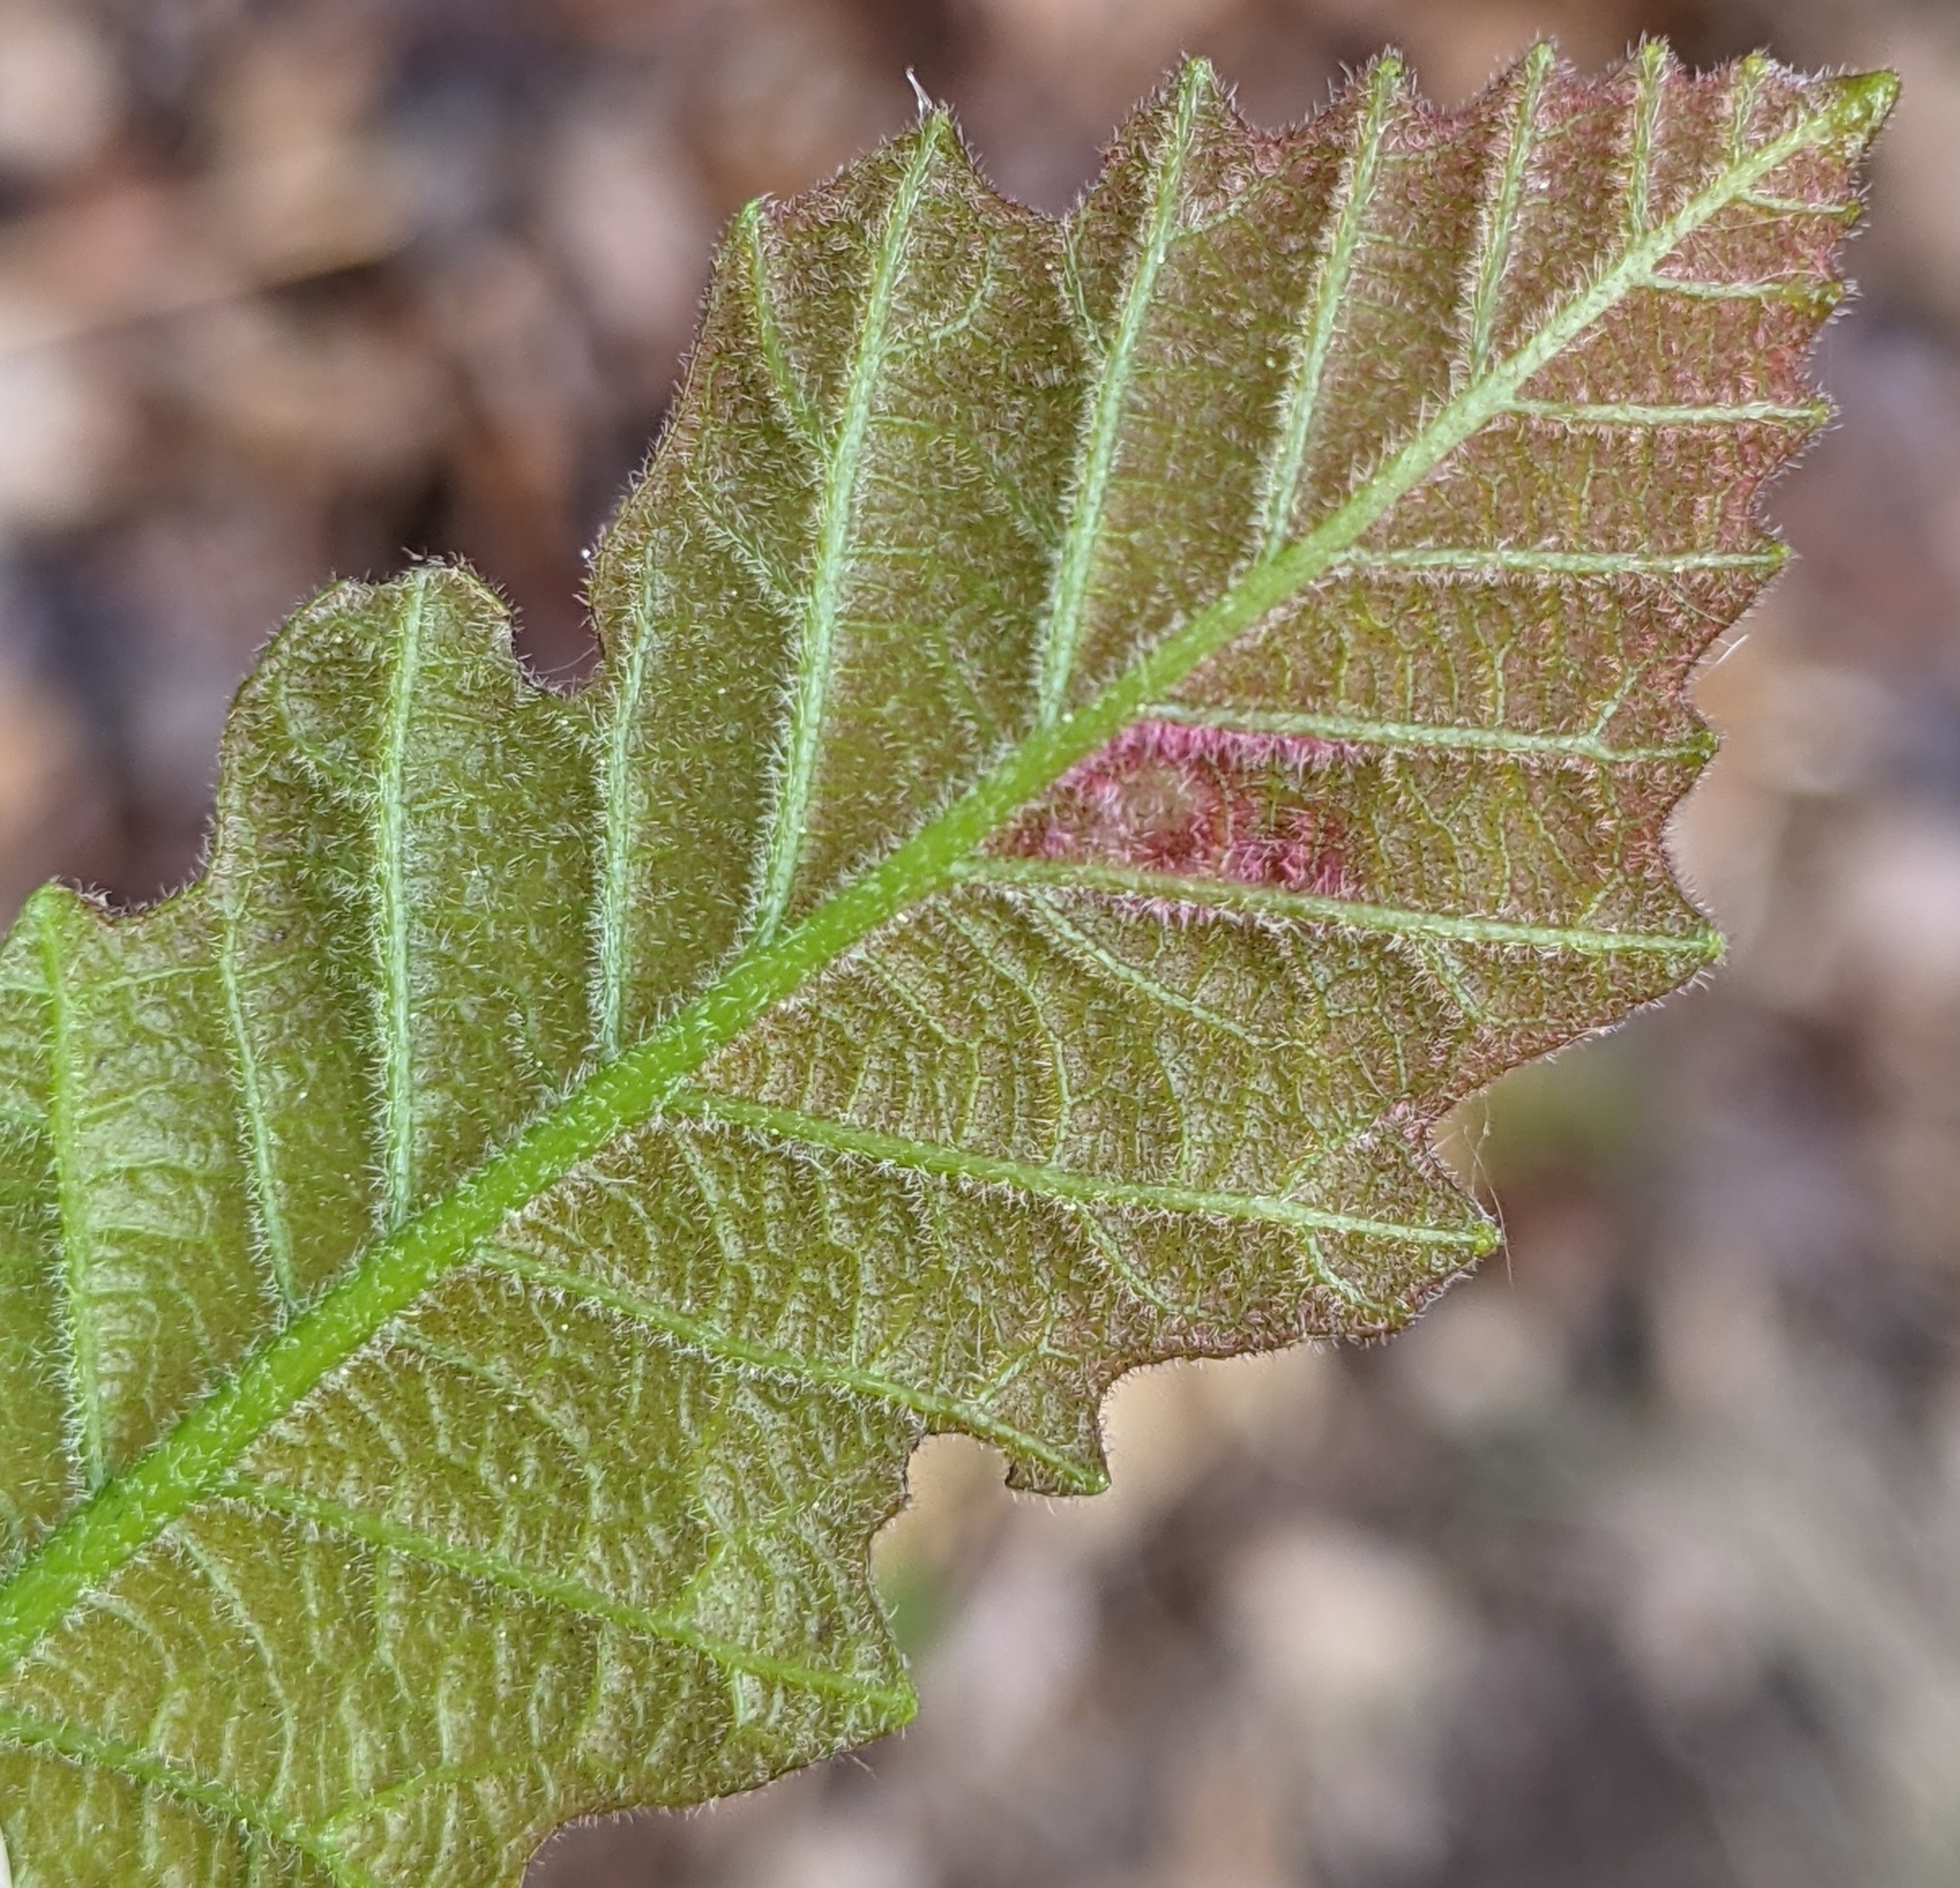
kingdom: Animalia
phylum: Arthropoda
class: Insecta
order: Hymenoptera
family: Cynipidae
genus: Neuroterus
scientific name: Neuroterus
